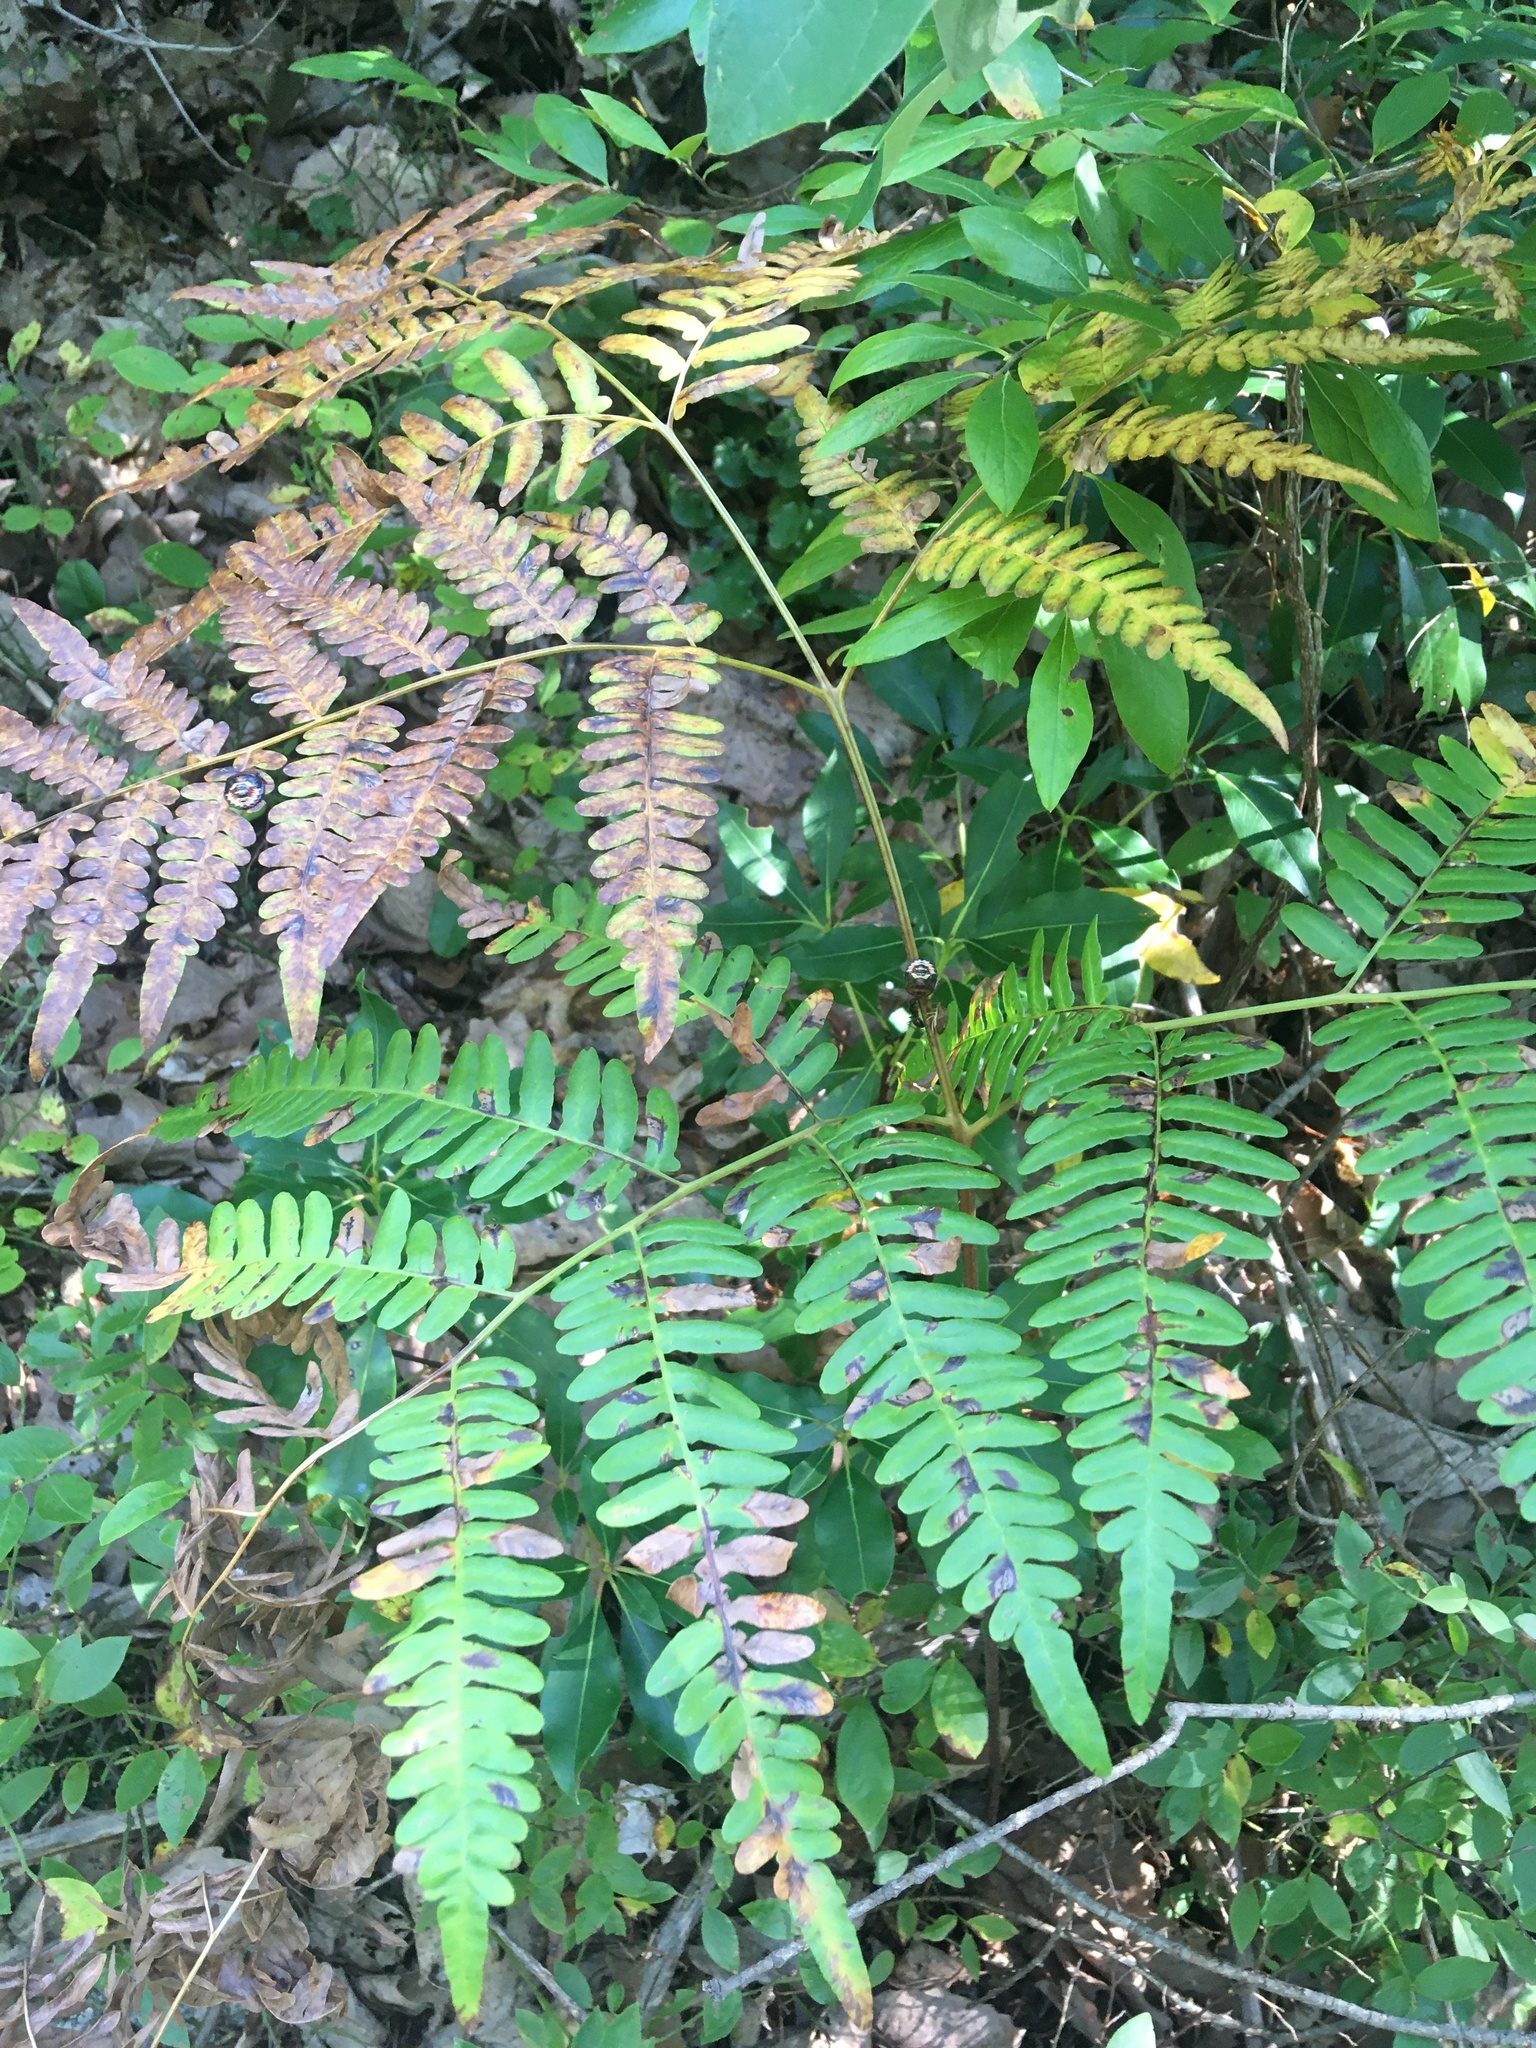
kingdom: Plantae
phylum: Tracheophyta
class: Polypodiopsida
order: Polypodiales
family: Dennstaedtiaceae
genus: Pteridium
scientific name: Pteridium aquilinum
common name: Bracken
